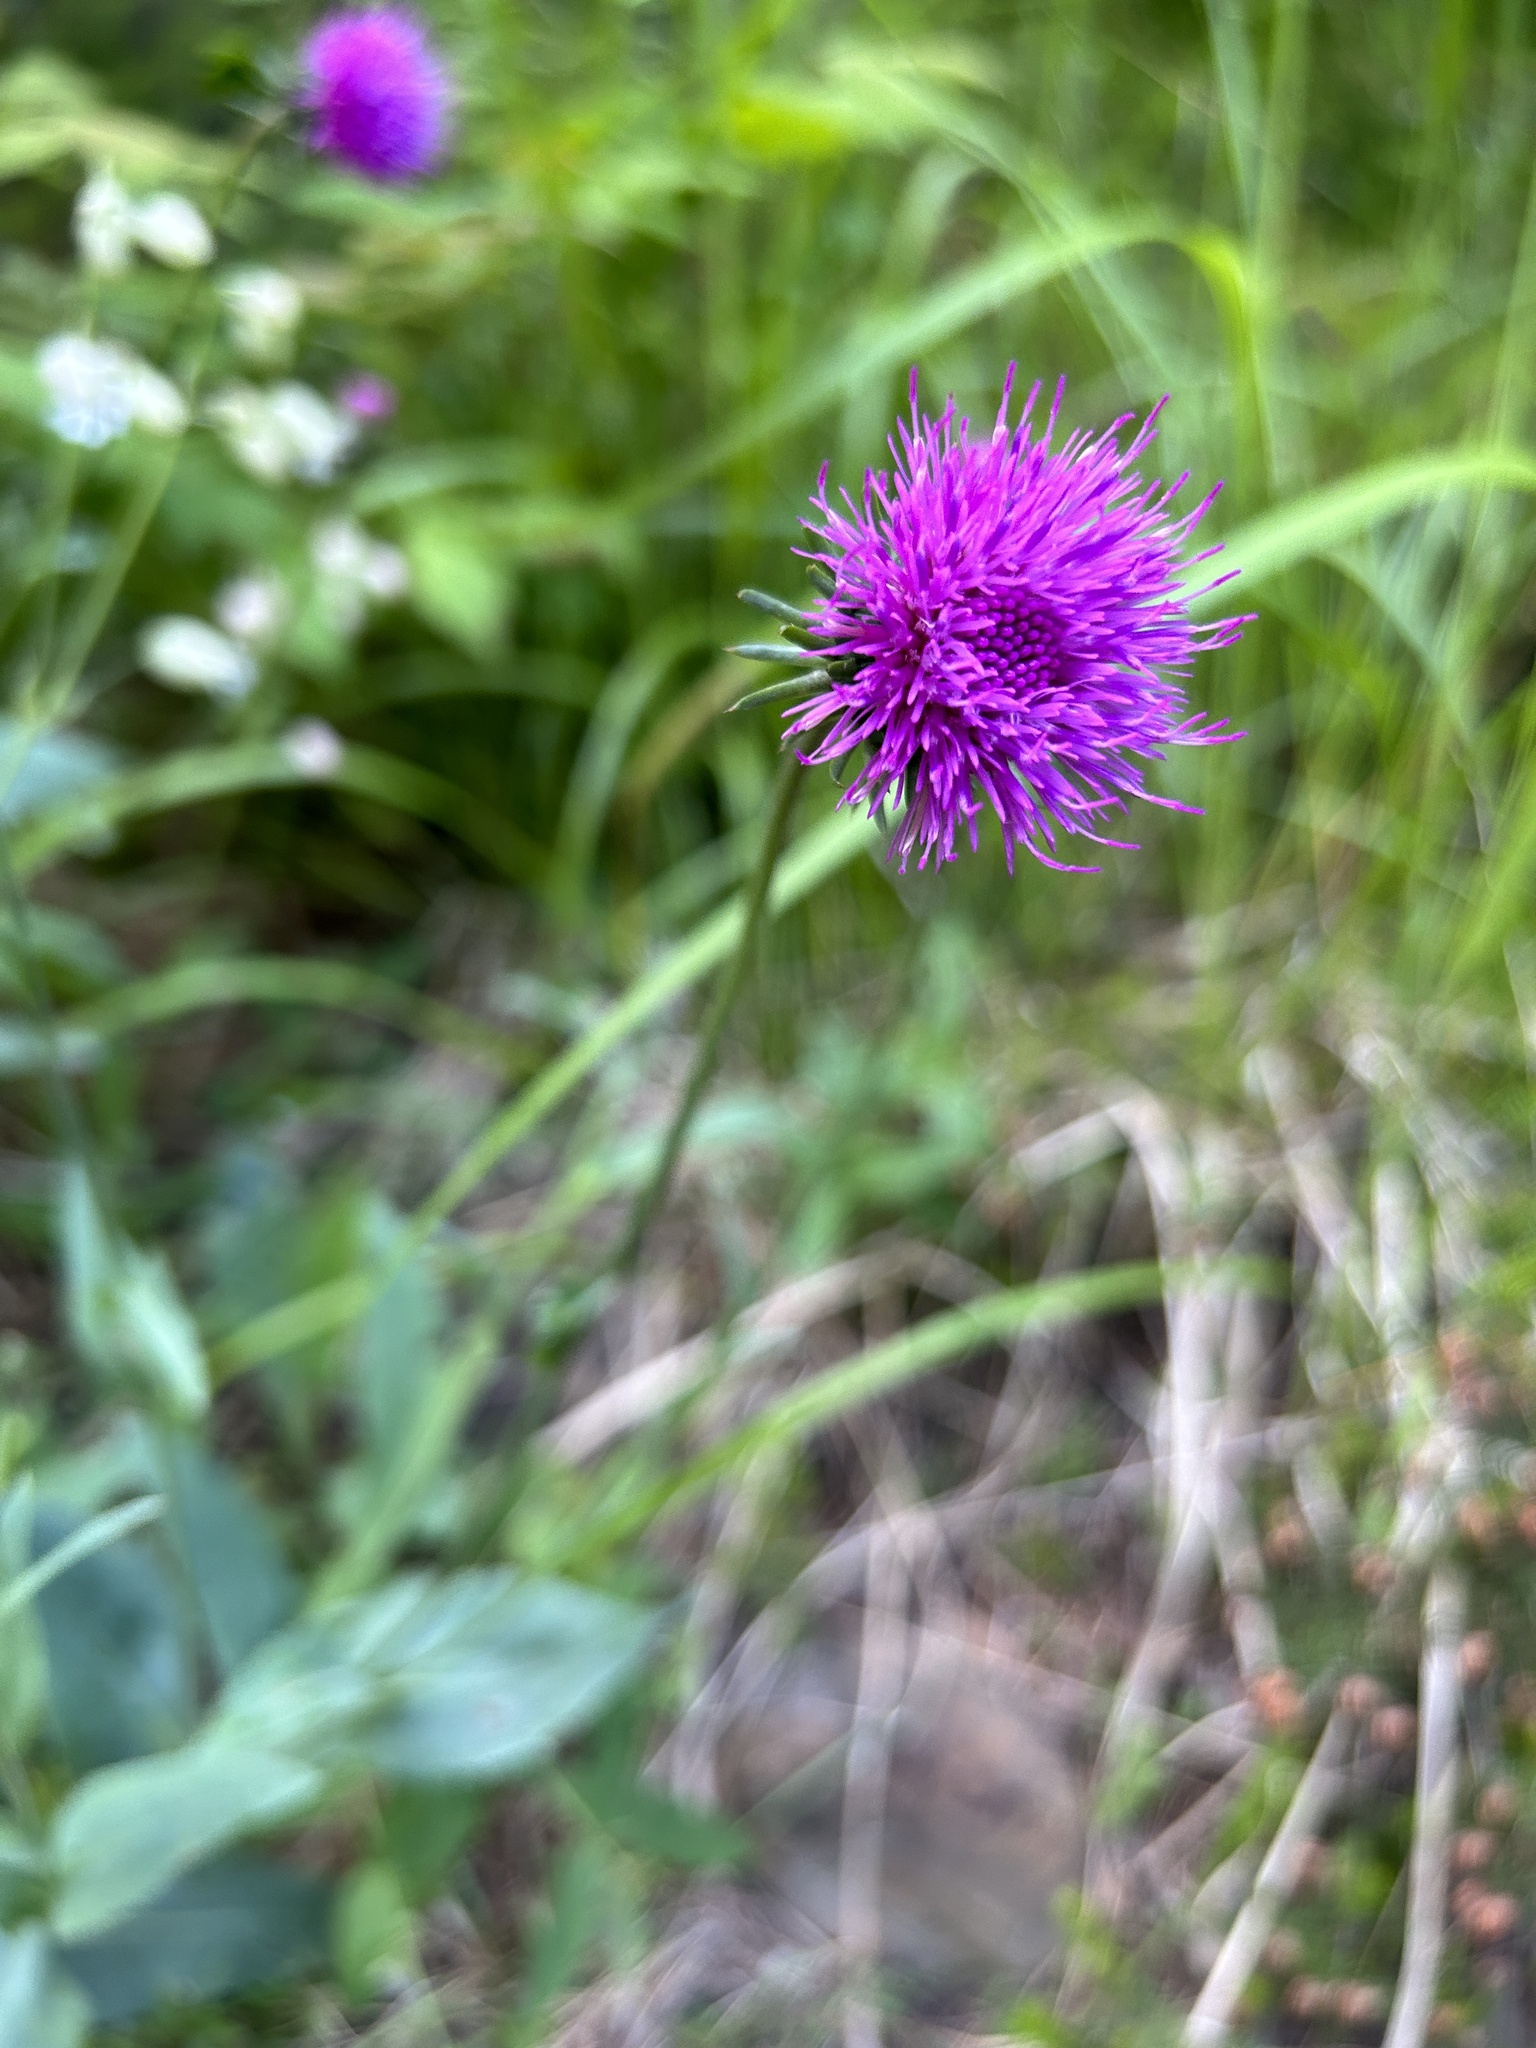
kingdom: Plantae
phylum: Tracheophyta
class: Magnoliopsida
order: Asterales
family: Asteraceae
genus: Carduus
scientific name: Carduus defloratus
